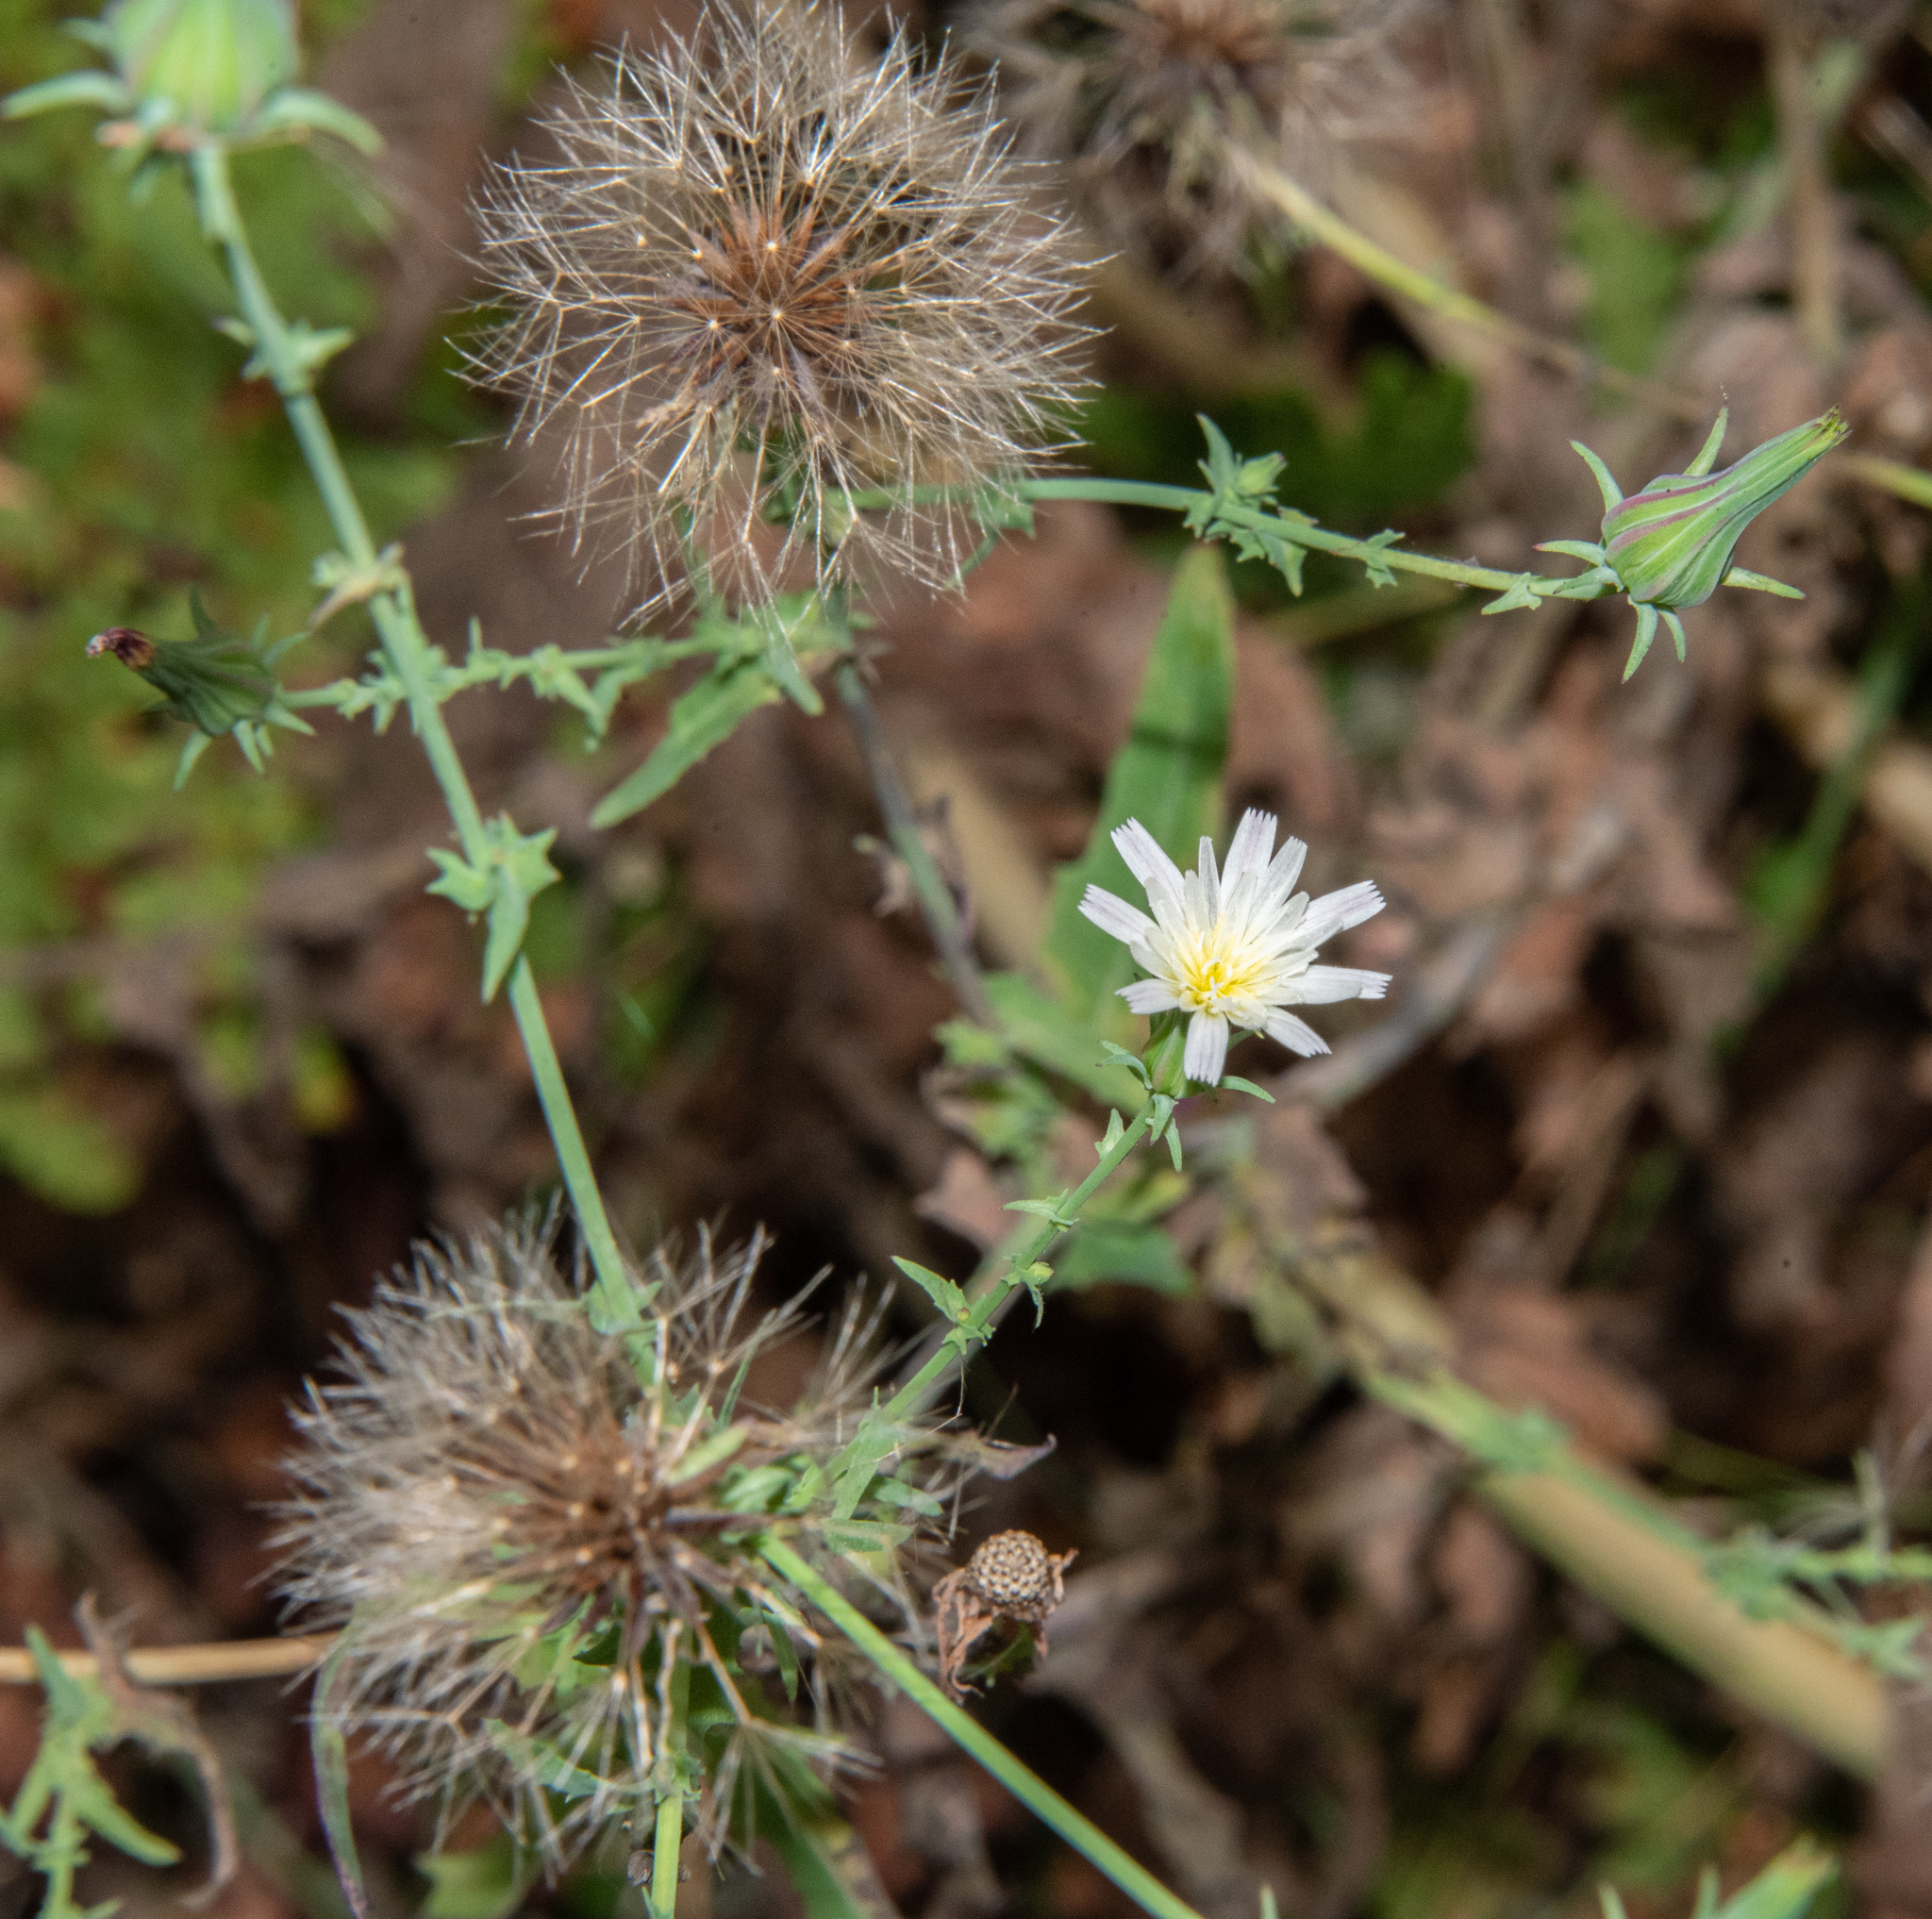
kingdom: Plantae
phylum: Tracheophyta
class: Magnoliopsida
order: Asterales
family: Asteraceae
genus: Rafinesquia
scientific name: Rafinesquia californica
